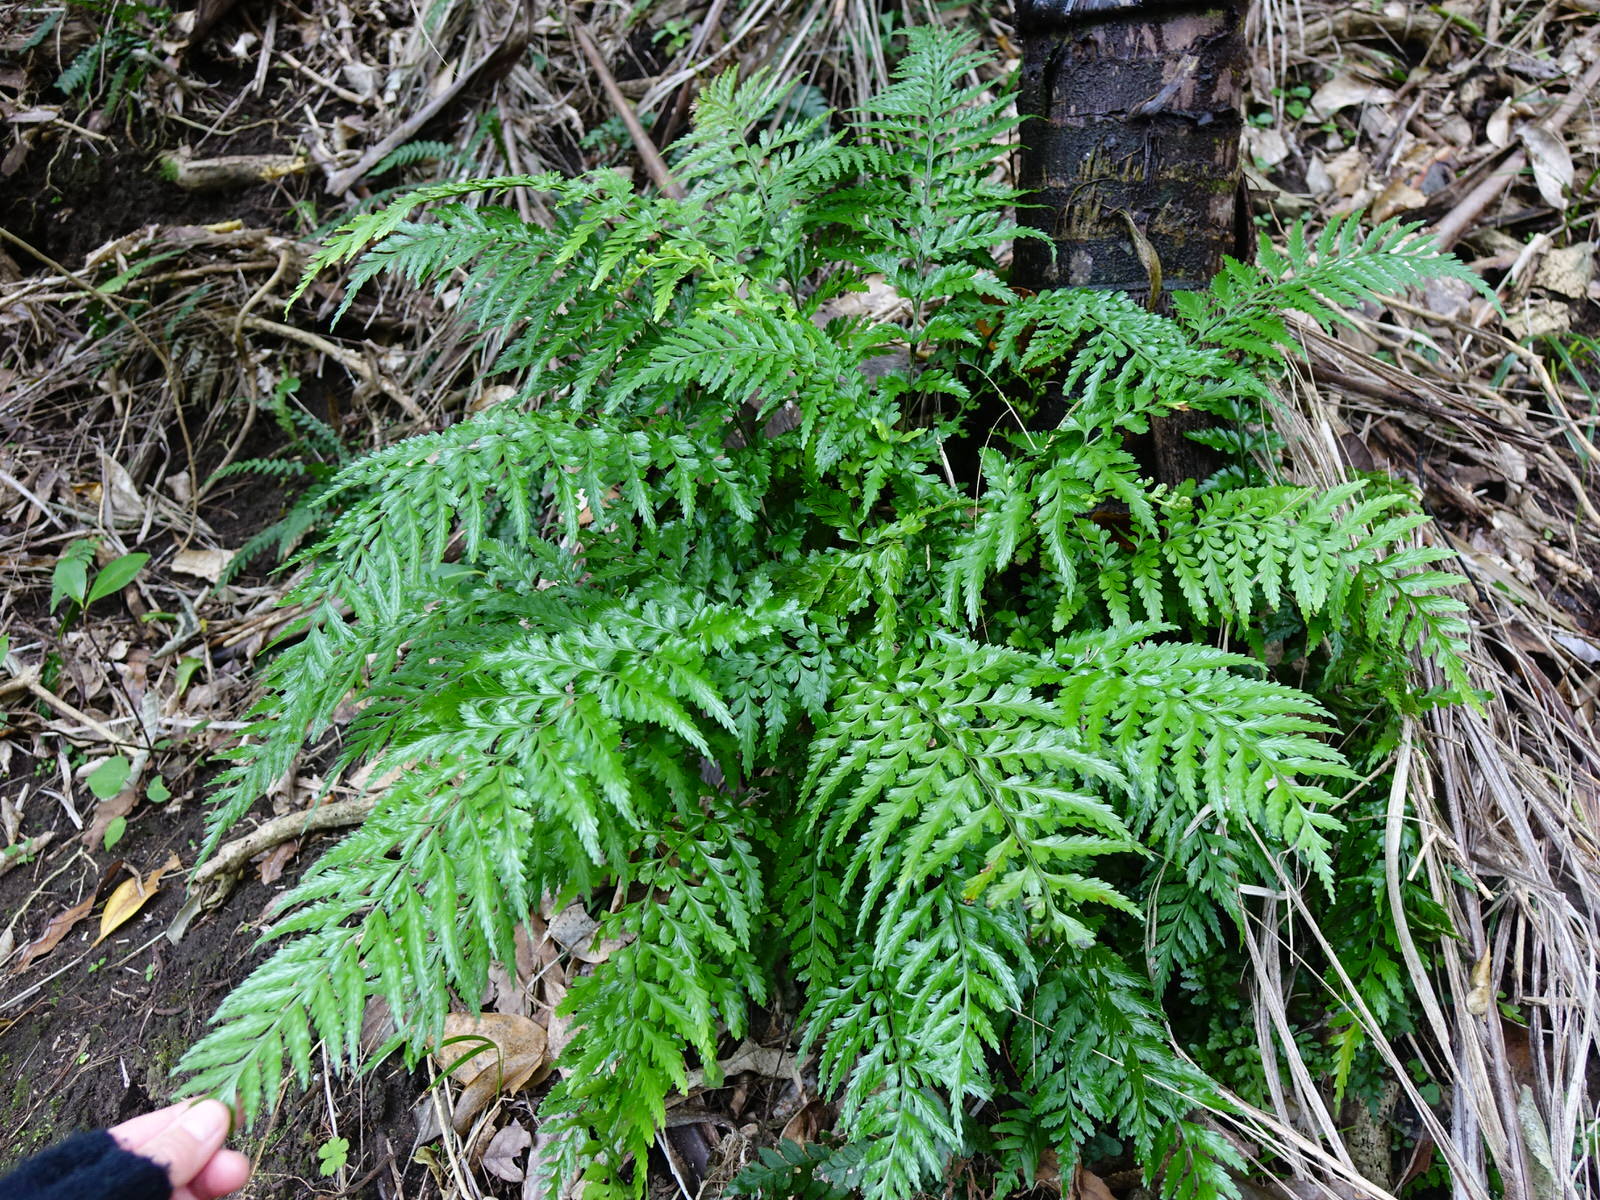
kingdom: Plantae
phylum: Tracheophyta
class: Polypodiopsida
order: Polypodiales
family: Aspleniaceae
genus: Asplenium
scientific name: Asplenium lamprophyllum
